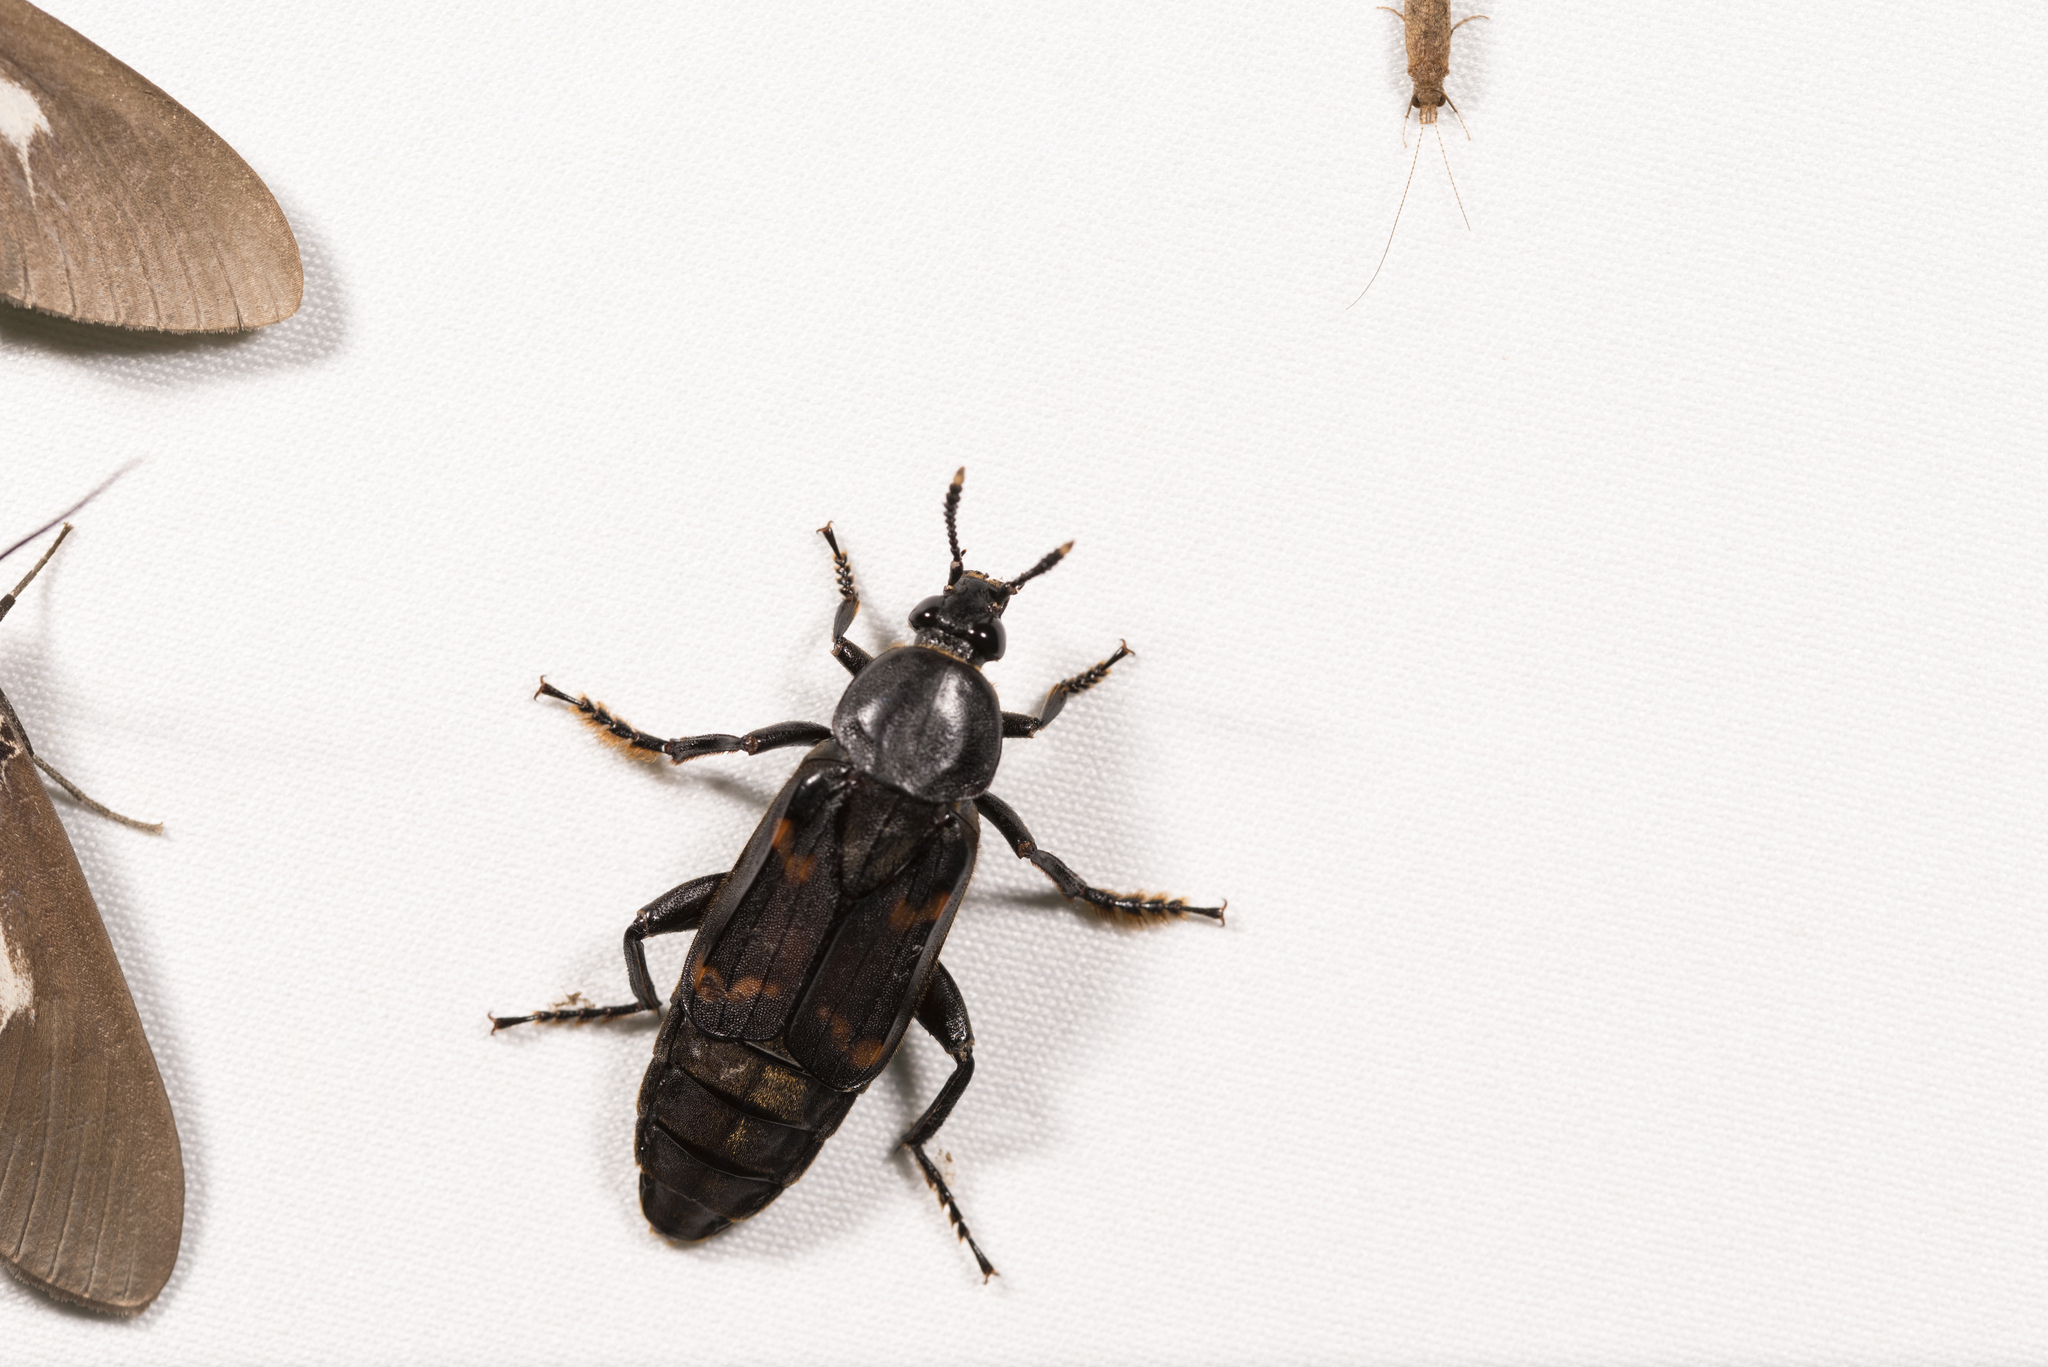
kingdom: Animalia
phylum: Arthropoda
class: Insecta
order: Coleoptera
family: Staphylinidae
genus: Diamesus
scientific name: Diamesus osculans
